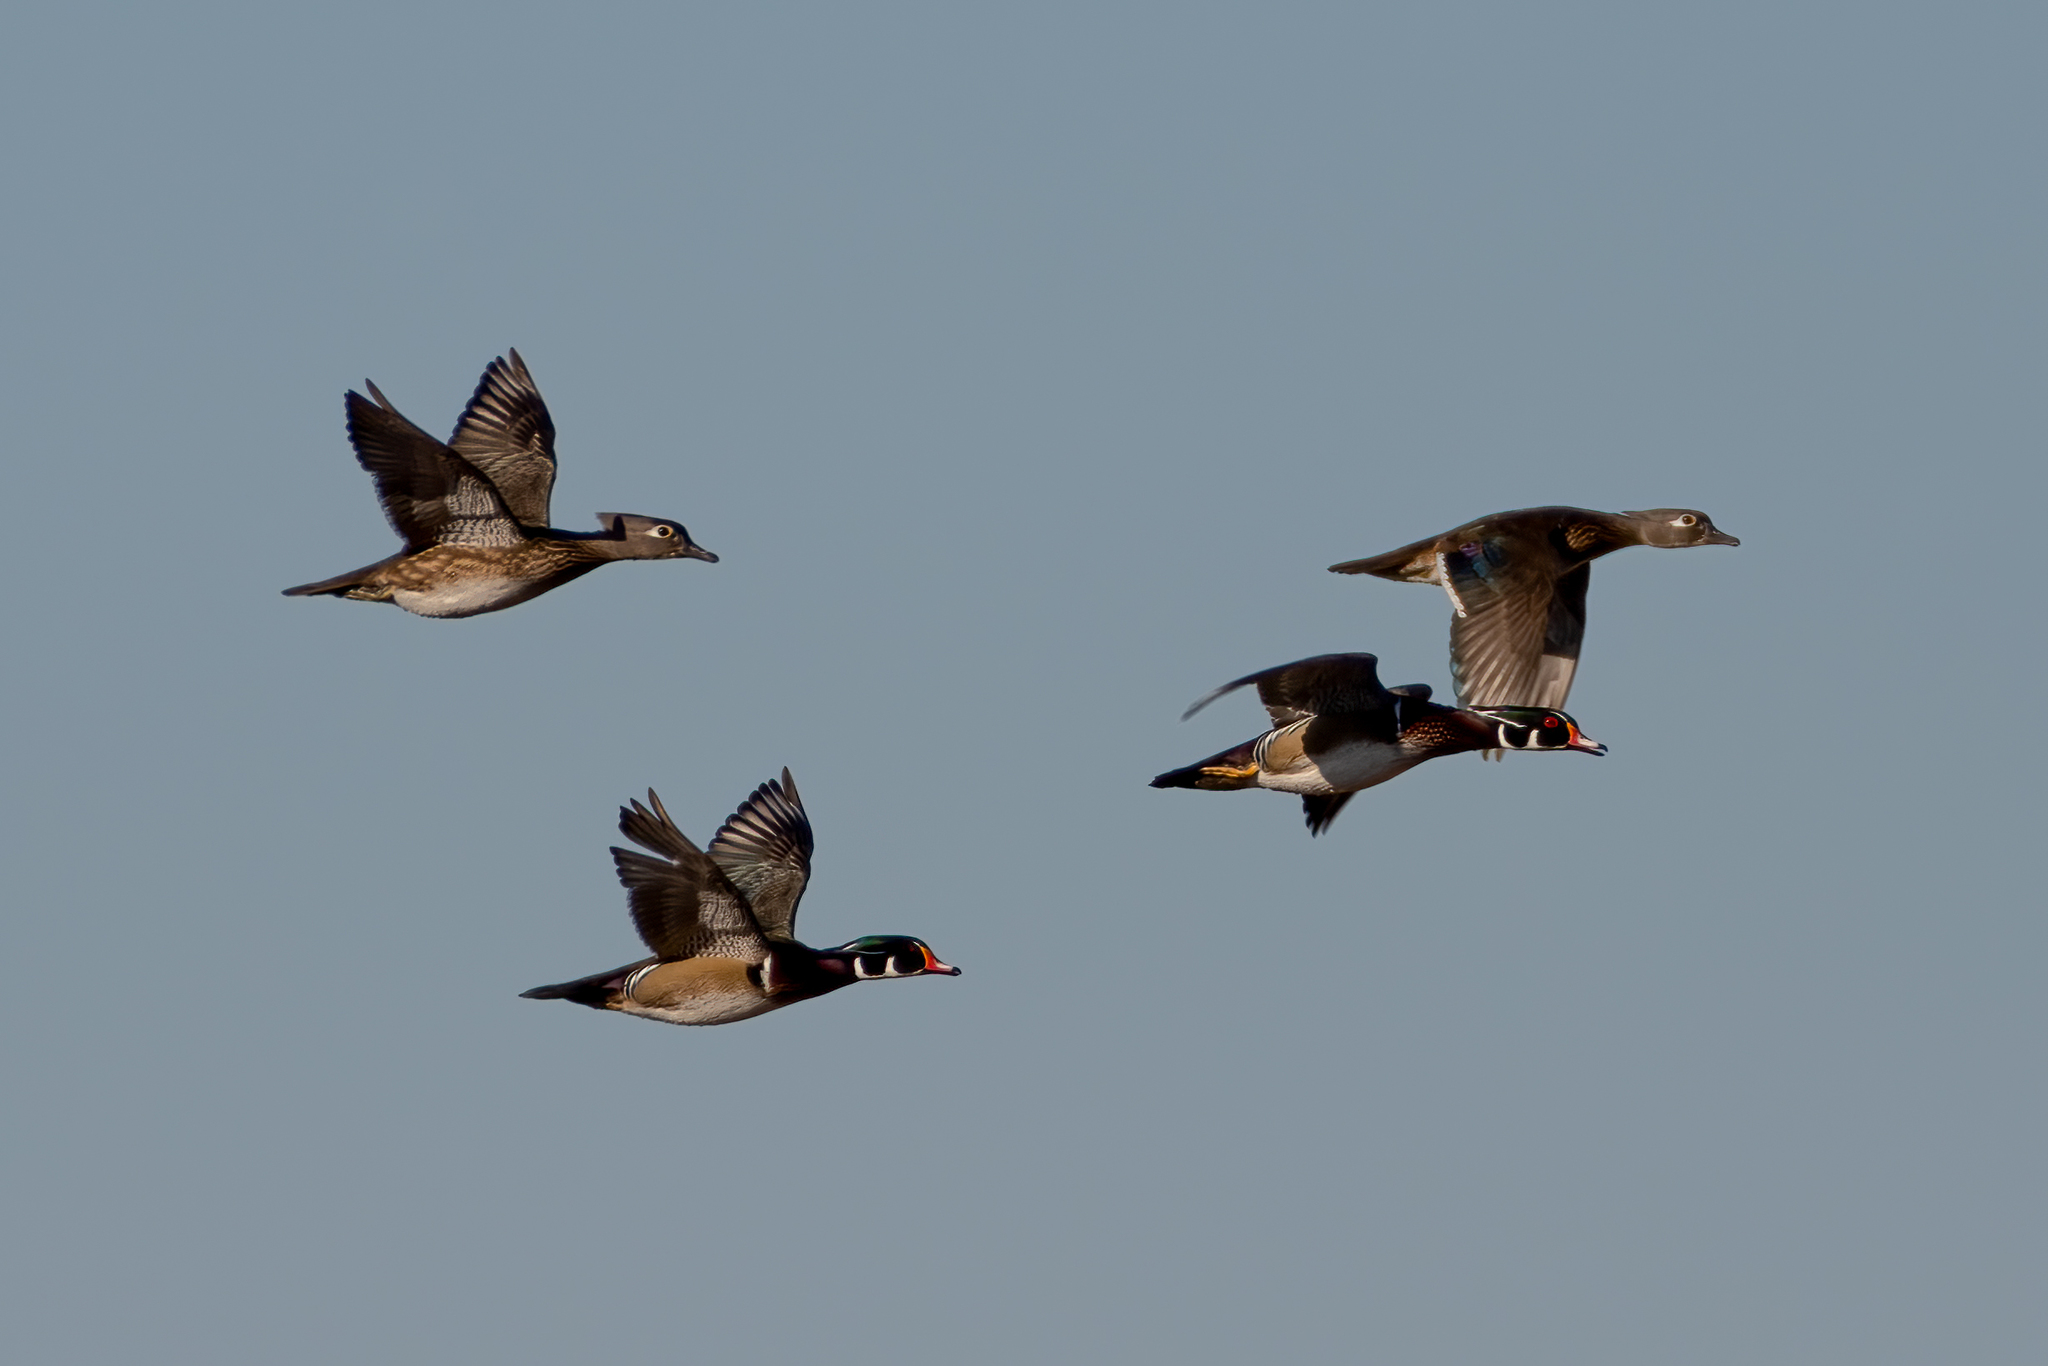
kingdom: Animalia
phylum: Chordata
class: Aves
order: Anseriformes
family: Anatidae
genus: Aix
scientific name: Aix sponsa
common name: Wood duck
